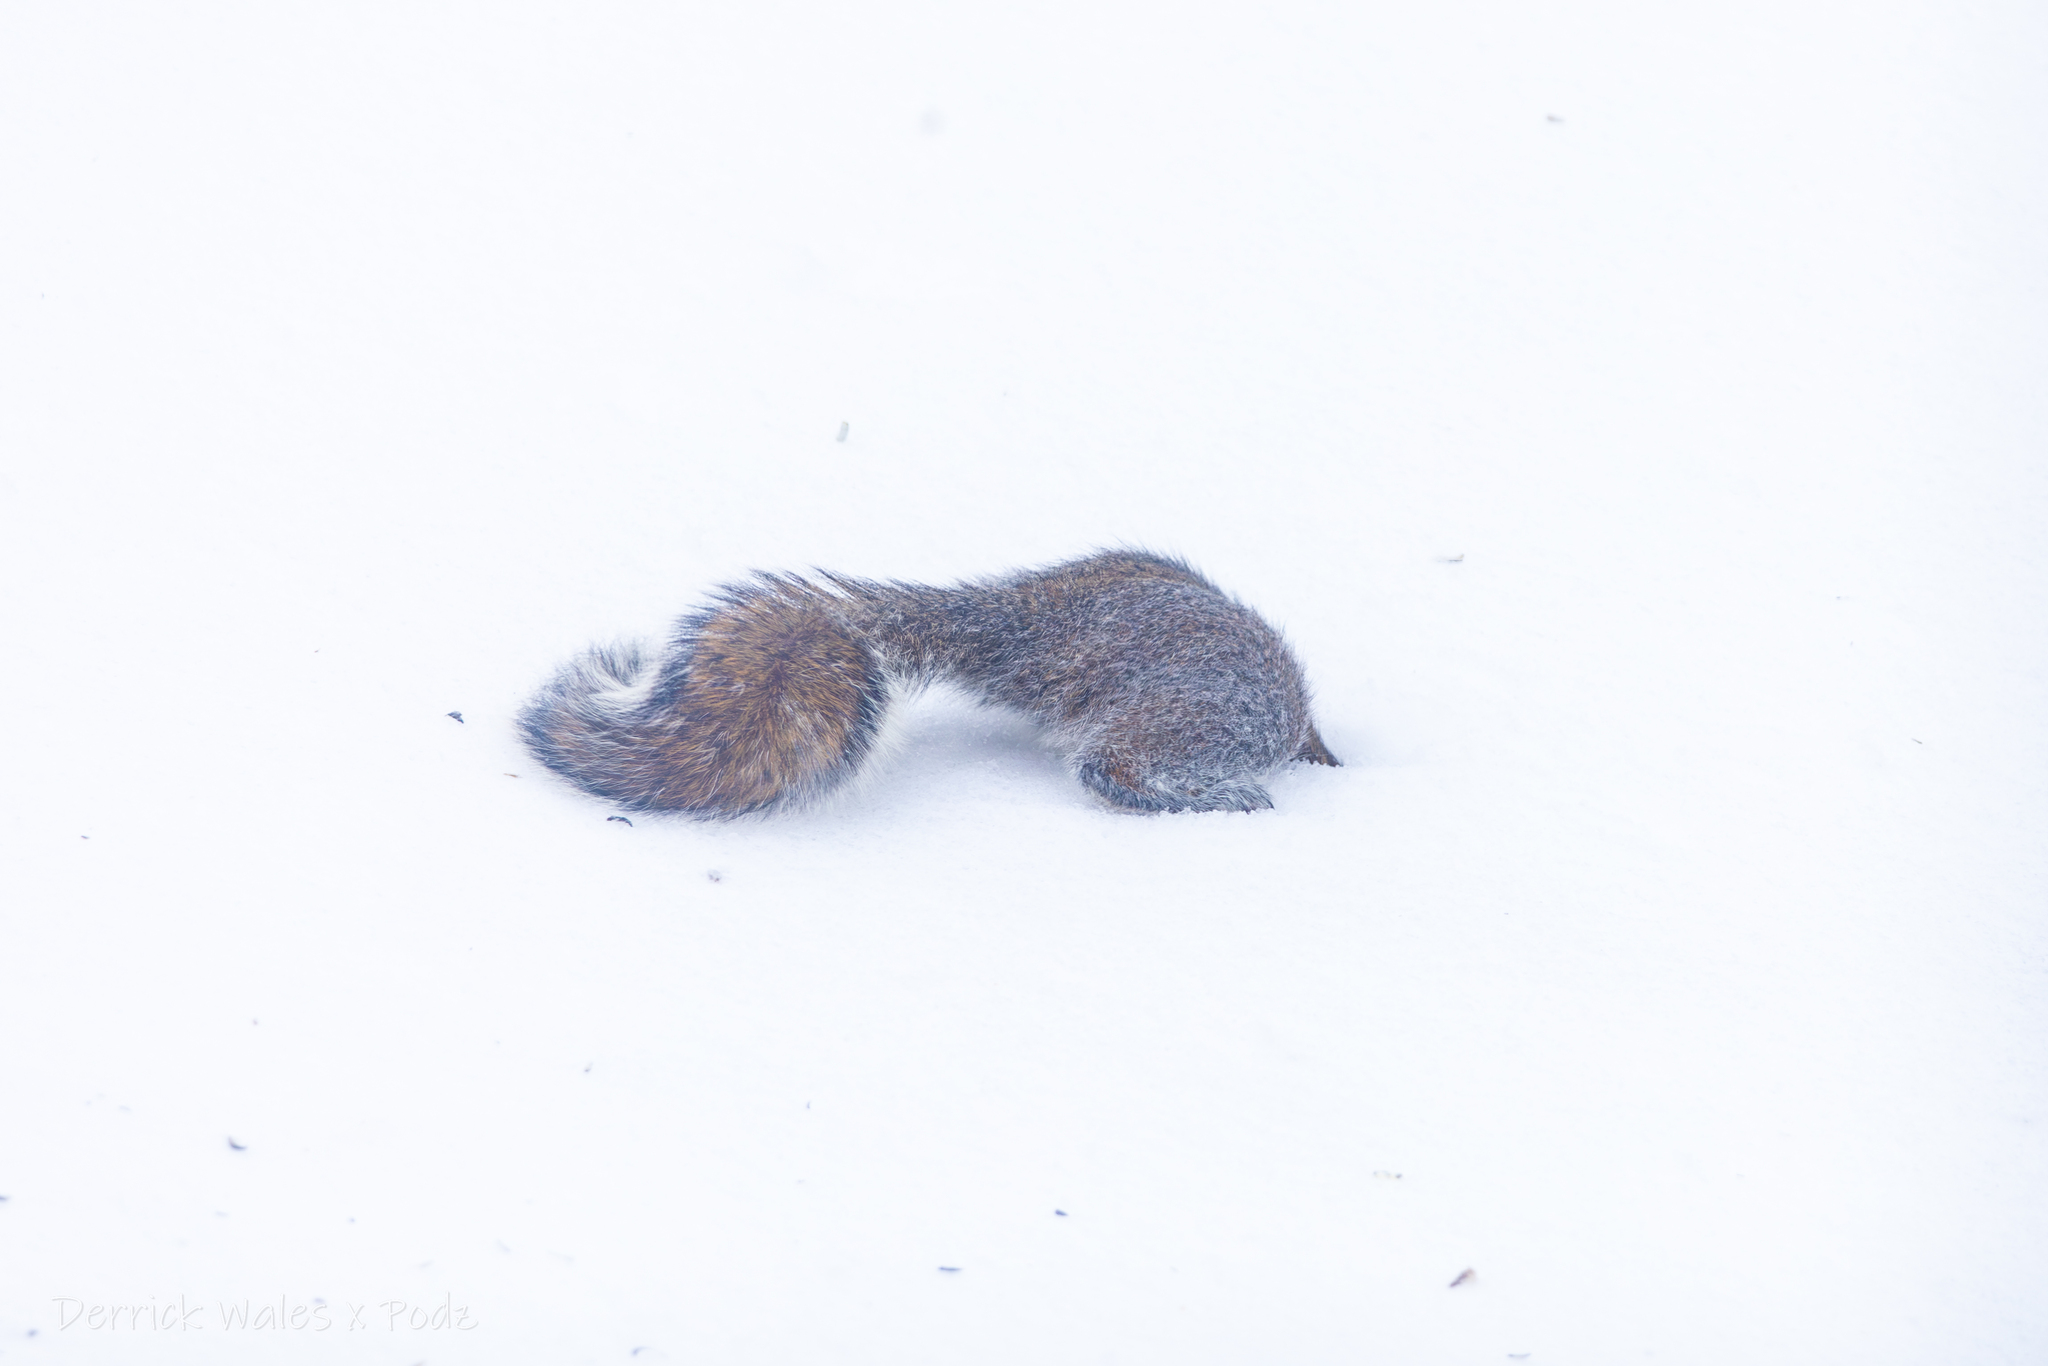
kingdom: Animalia
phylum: Chordata
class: Mammalia
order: Rodentia
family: Sciuridae
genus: Sciurus
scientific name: Sciurus carolinensis
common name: Eastern gray squirrel
